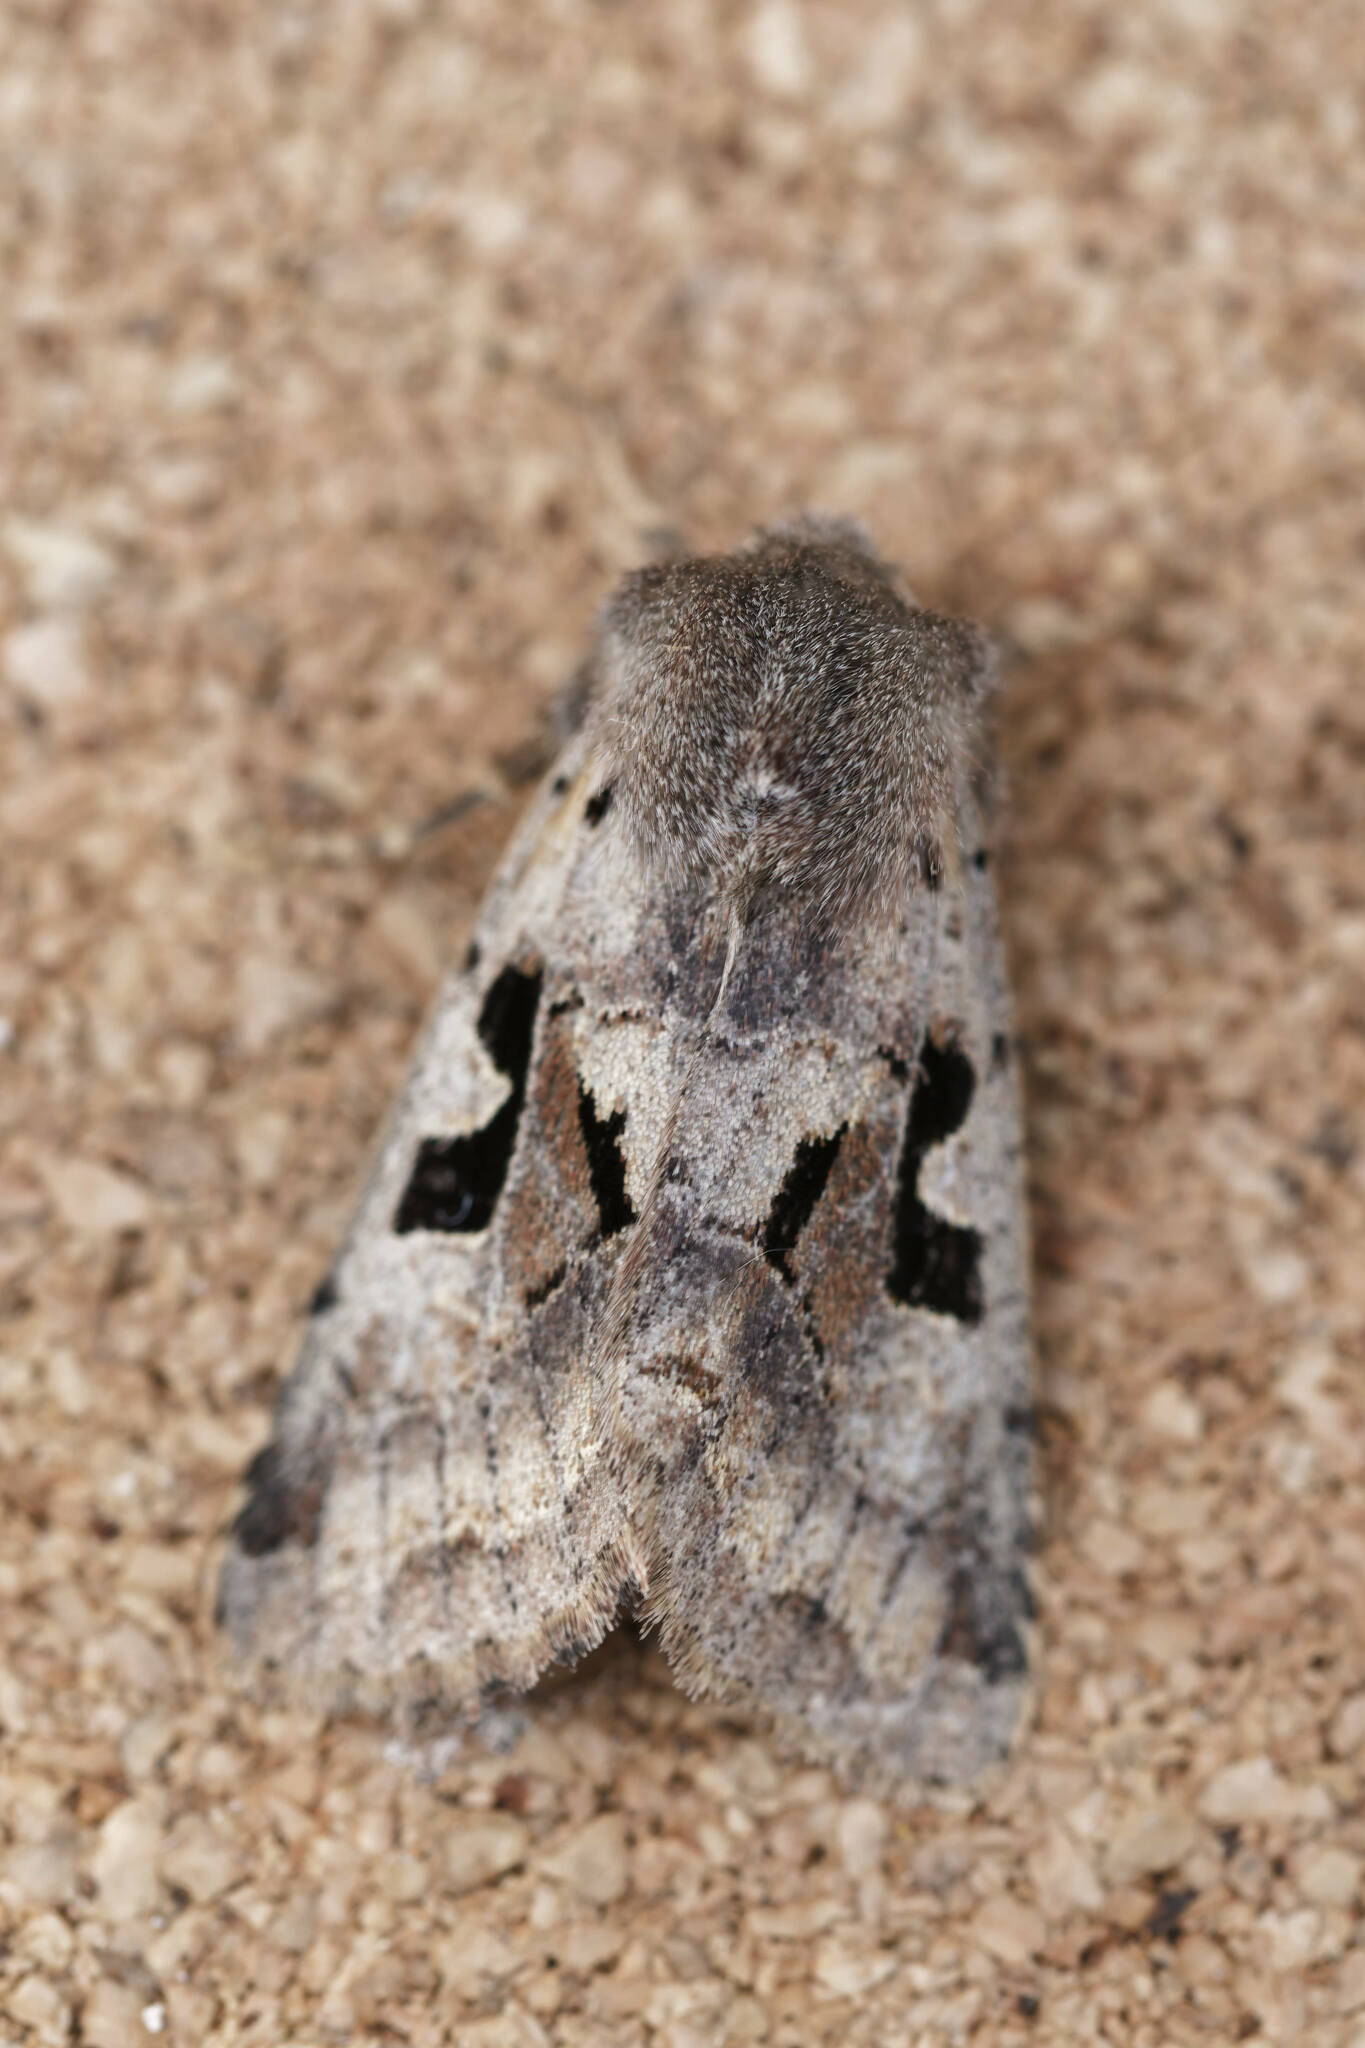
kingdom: Animalia
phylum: Arthropoda
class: Insecta
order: Lepidoptera
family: Noctuidae
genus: Orthosia
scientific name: Orthosia gothica
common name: Hebrew character
